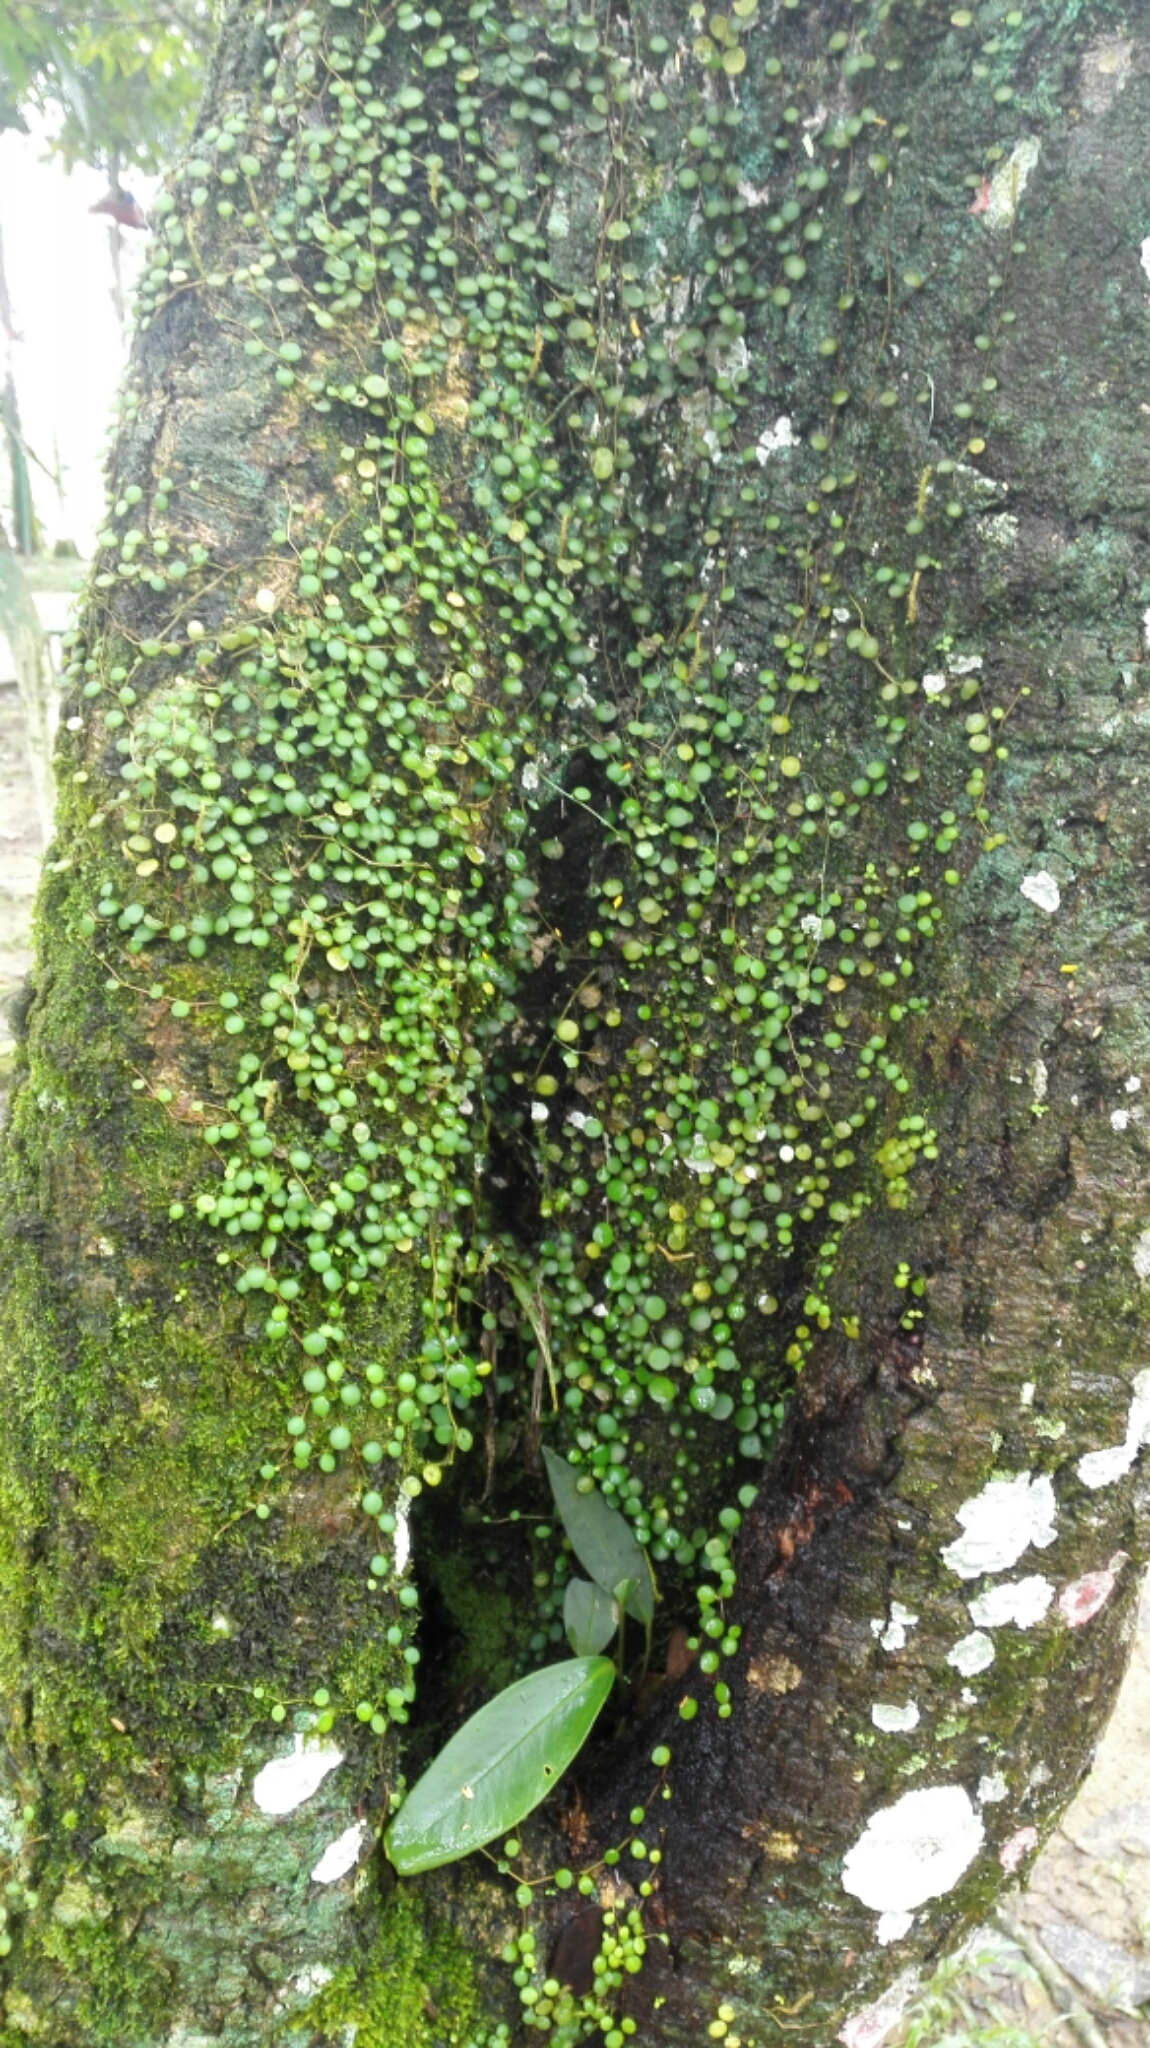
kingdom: Plantae
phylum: Tracheophyta
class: Magnoliopsida
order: Piperales
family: Piperaceae
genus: Peperomia
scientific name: Peperomia rotundifolia
